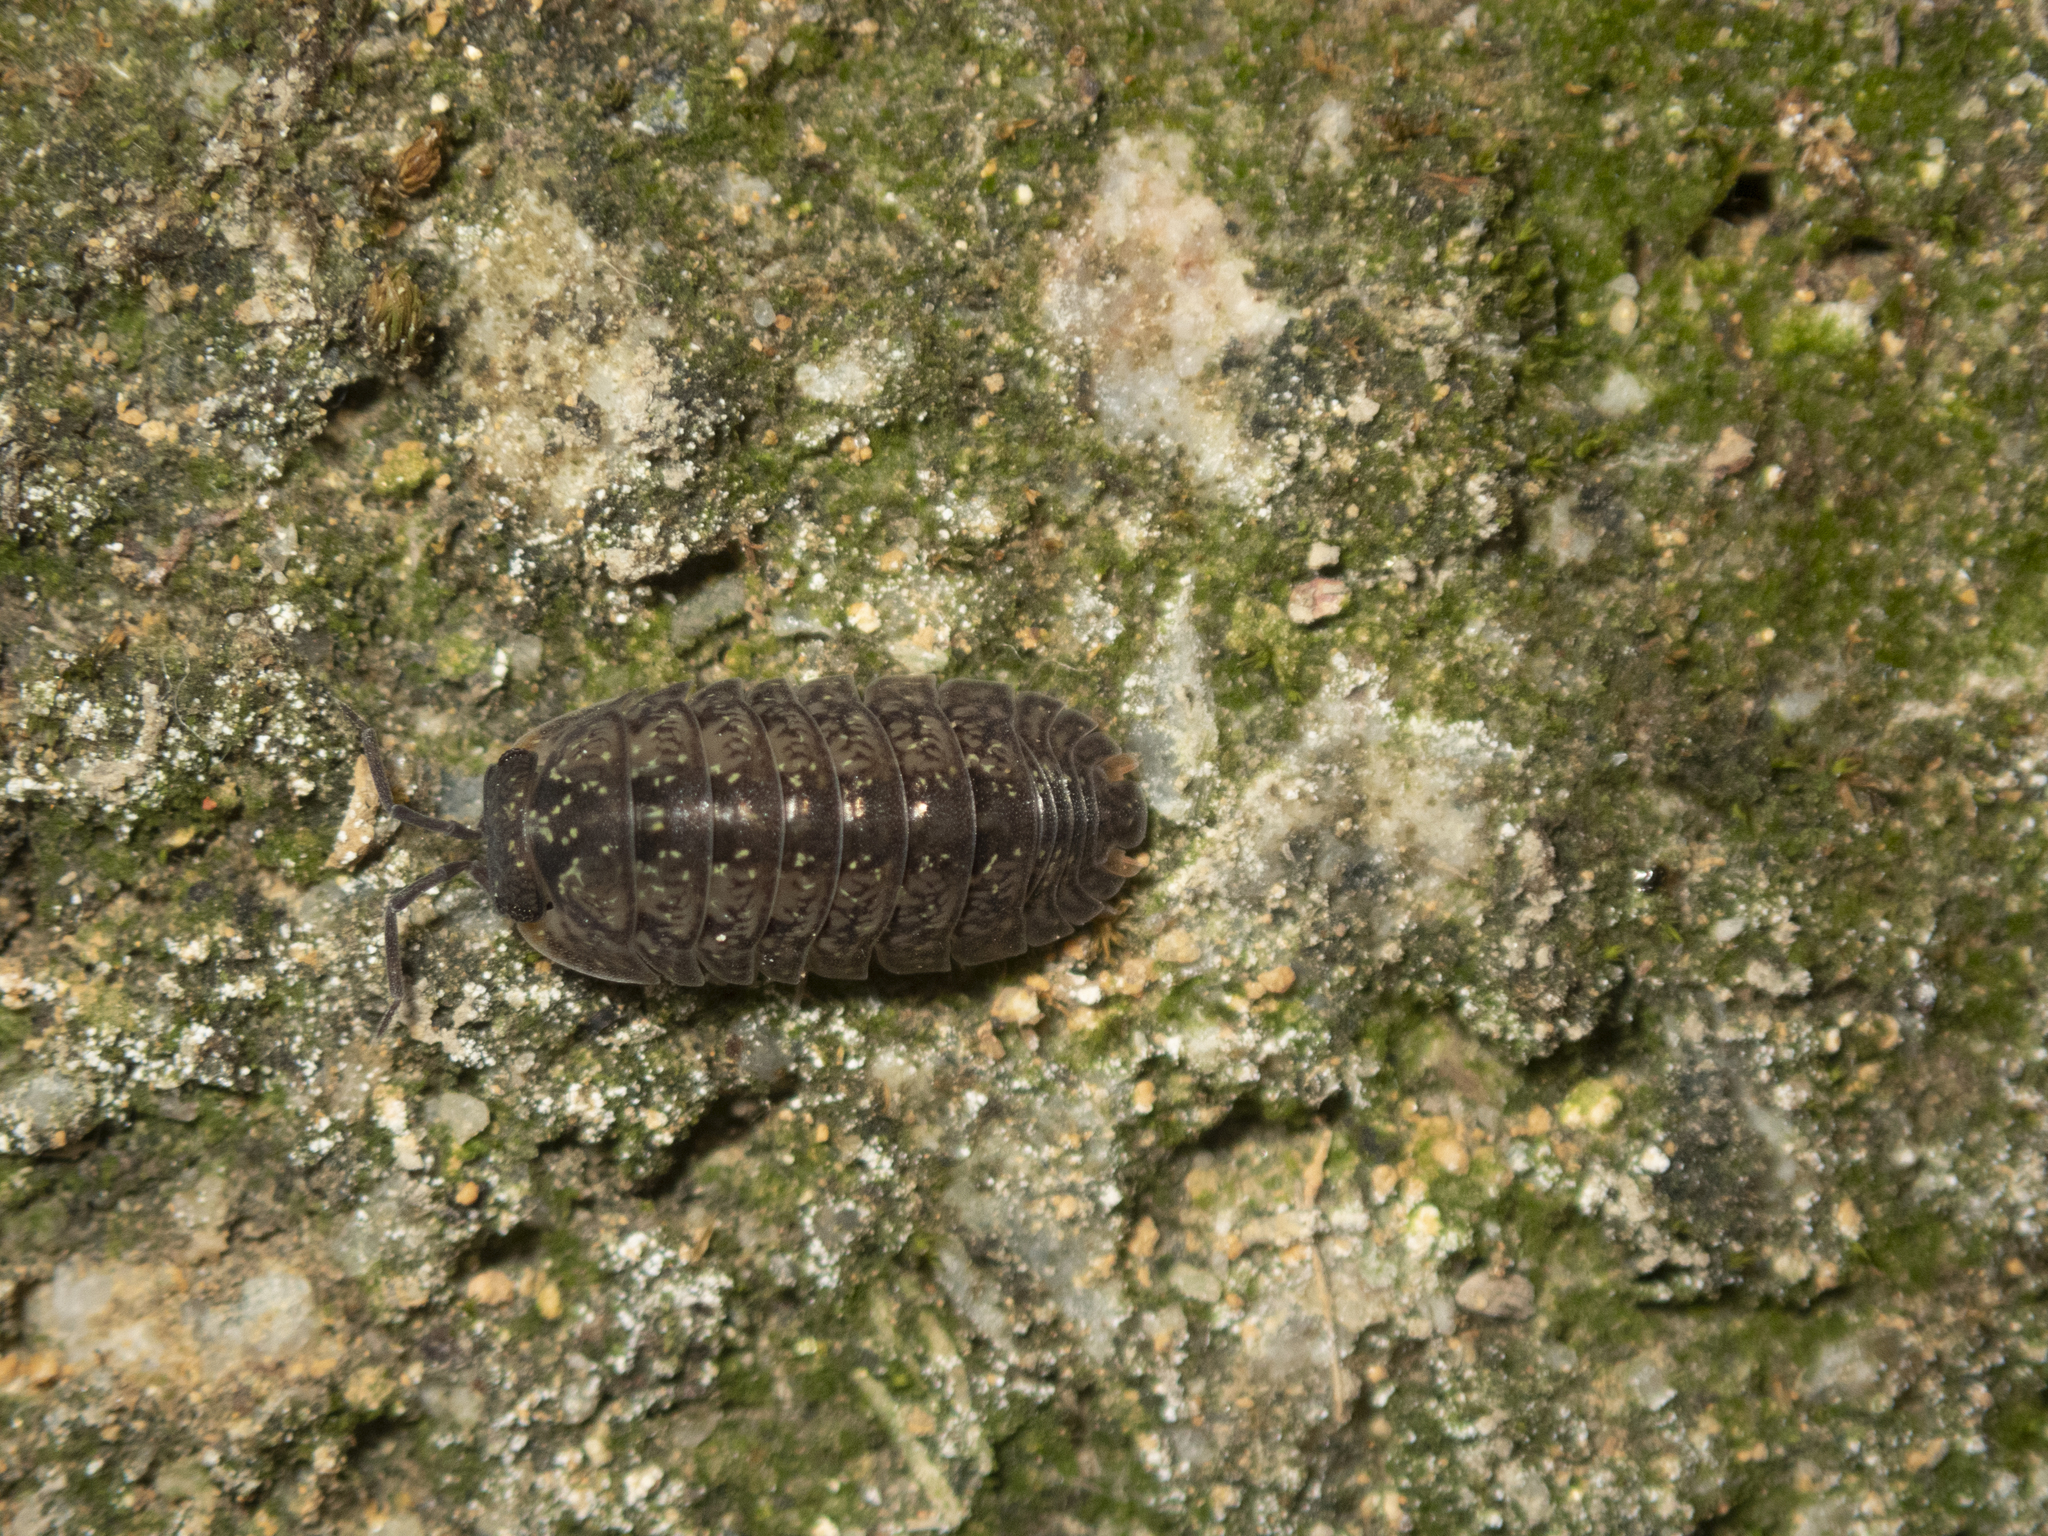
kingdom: Animalia
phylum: Arthropoda
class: Malacostraca
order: Isopoda
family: Armadillidae
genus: Dryadillo
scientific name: Dryadillo maculatus
